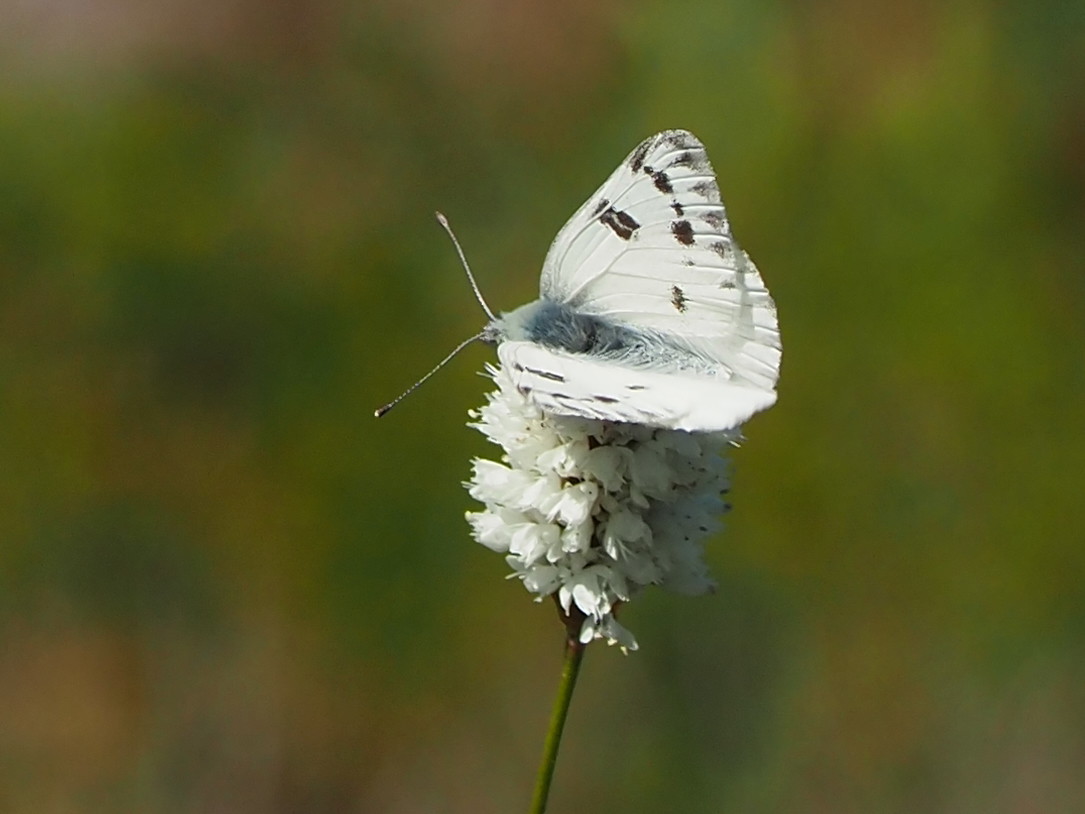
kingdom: Animalia
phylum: Arthropoda
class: Insecta
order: Lepidoptera
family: Pieridae
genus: Pontia
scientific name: Pontia occidentalis
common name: Western white
